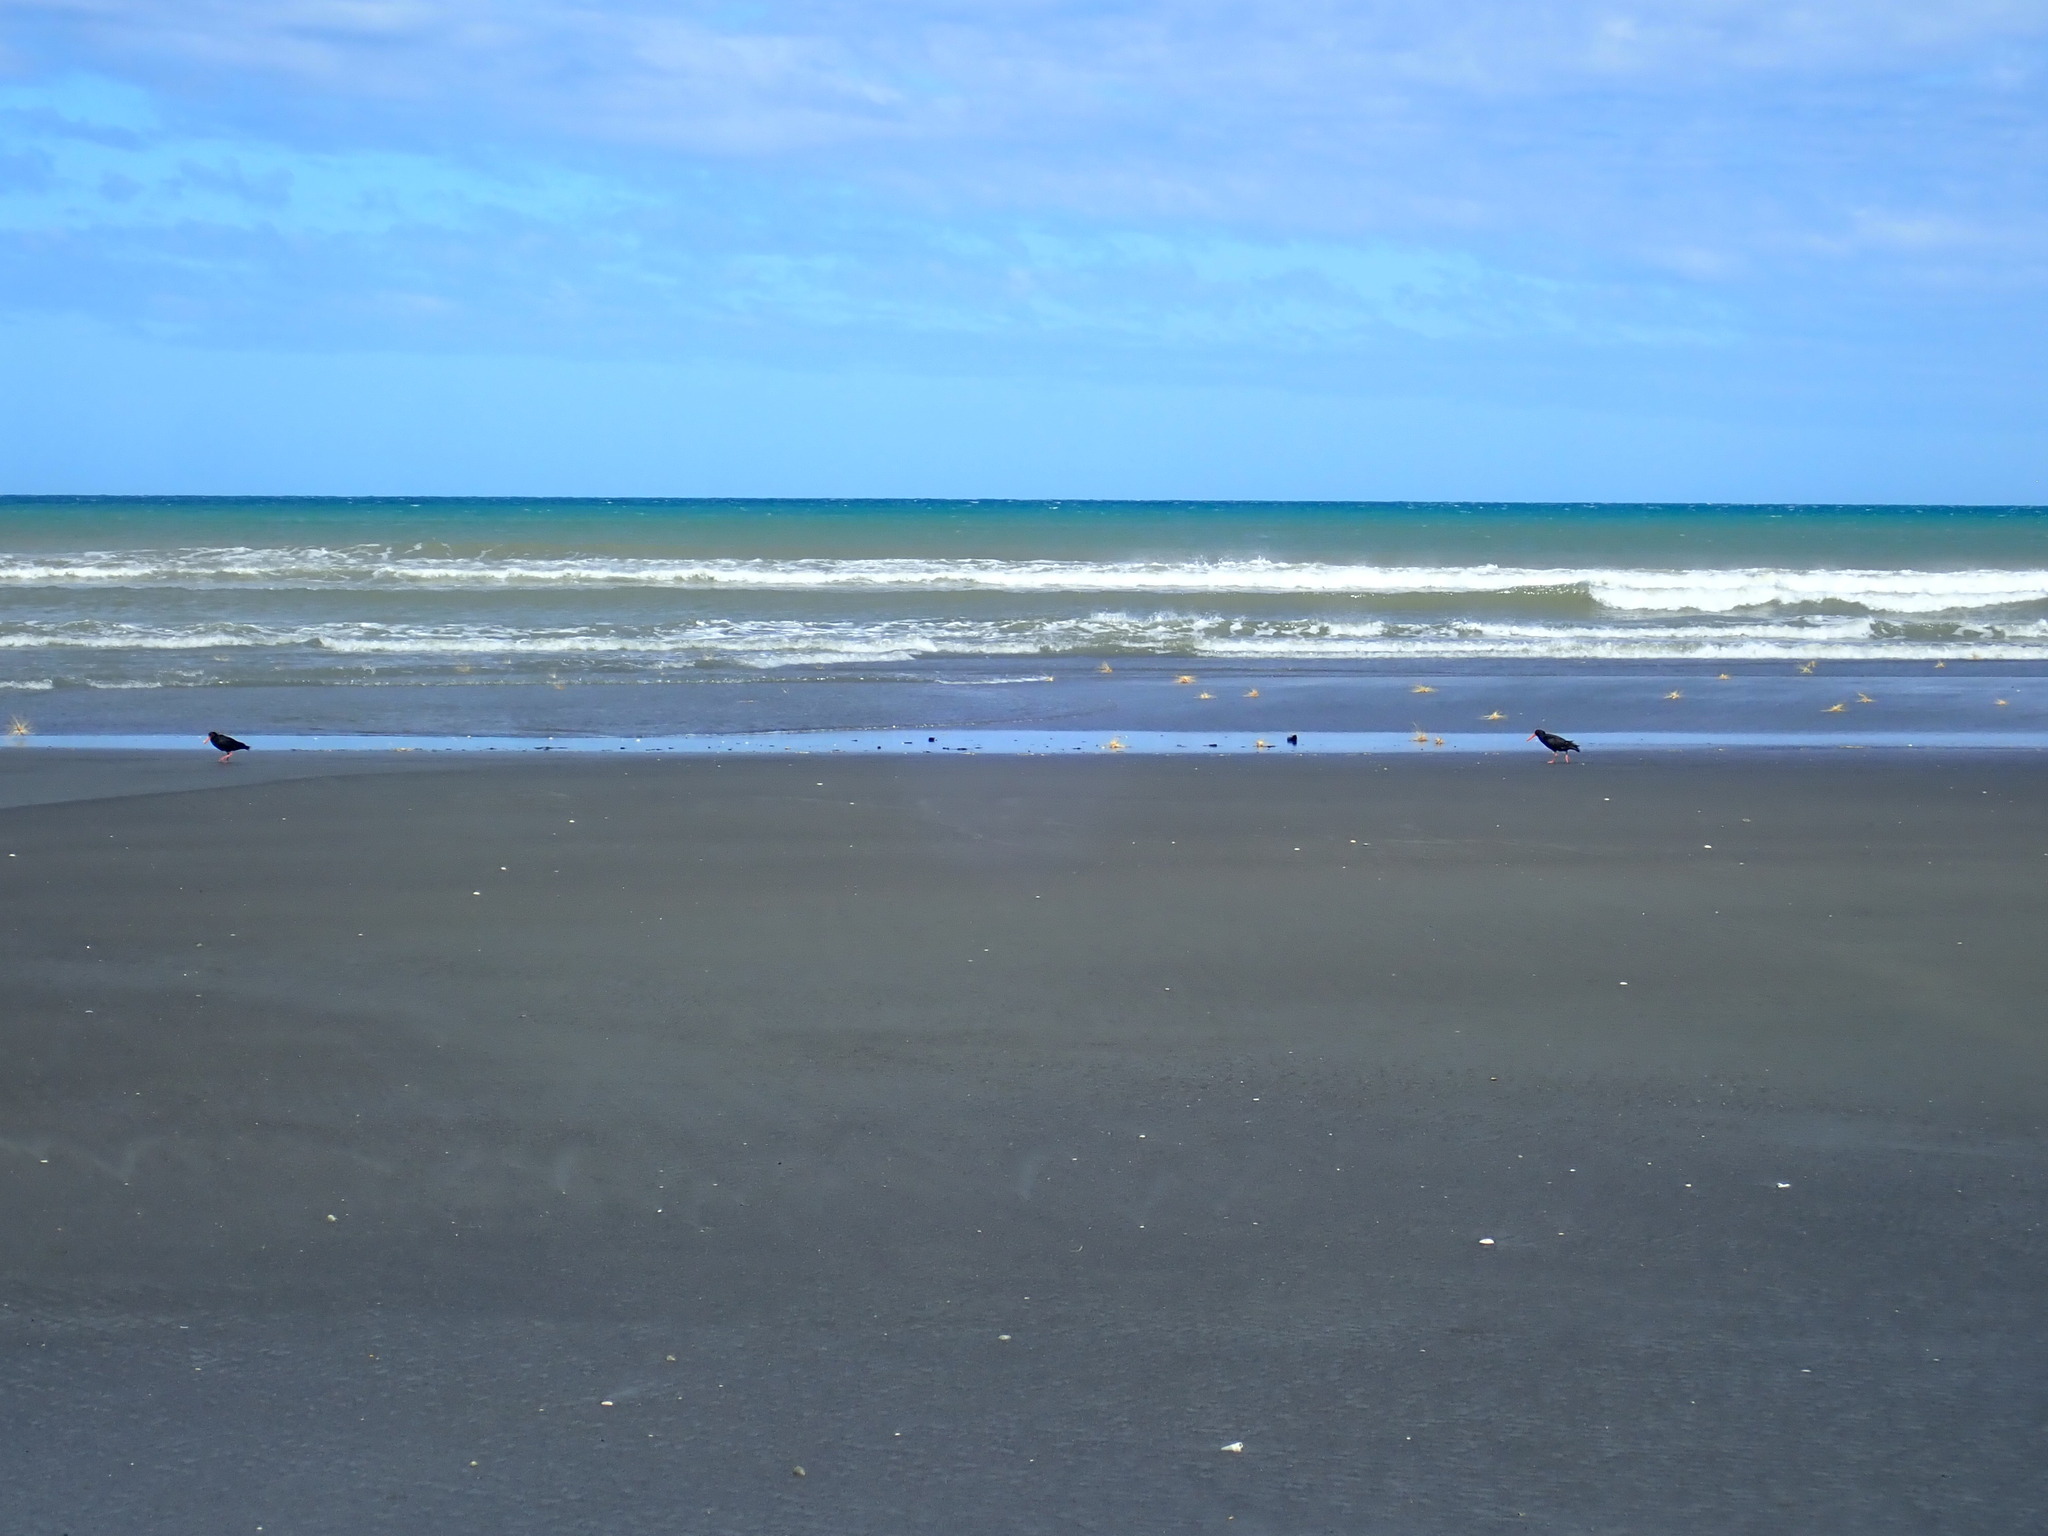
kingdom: Animalia
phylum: Chordata
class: Aves
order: Charadriiformes
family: Haematopodidae
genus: Haematopus
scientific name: Haematopus unicolor
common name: Variable oystercatcher
